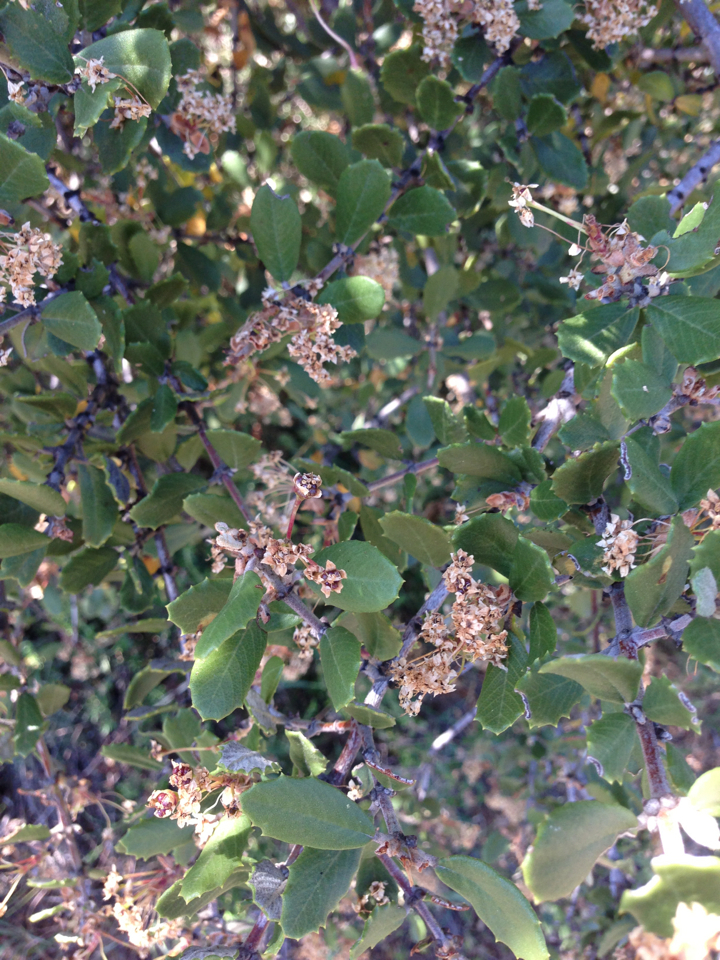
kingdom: Plantae
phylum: Tracheophyta
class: Magnoliopsida
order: Rosales
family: Rhamnaceae
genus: Ceanothus
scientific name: Ceanothus crassifolius
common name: Hoaryleaf ceanothus
